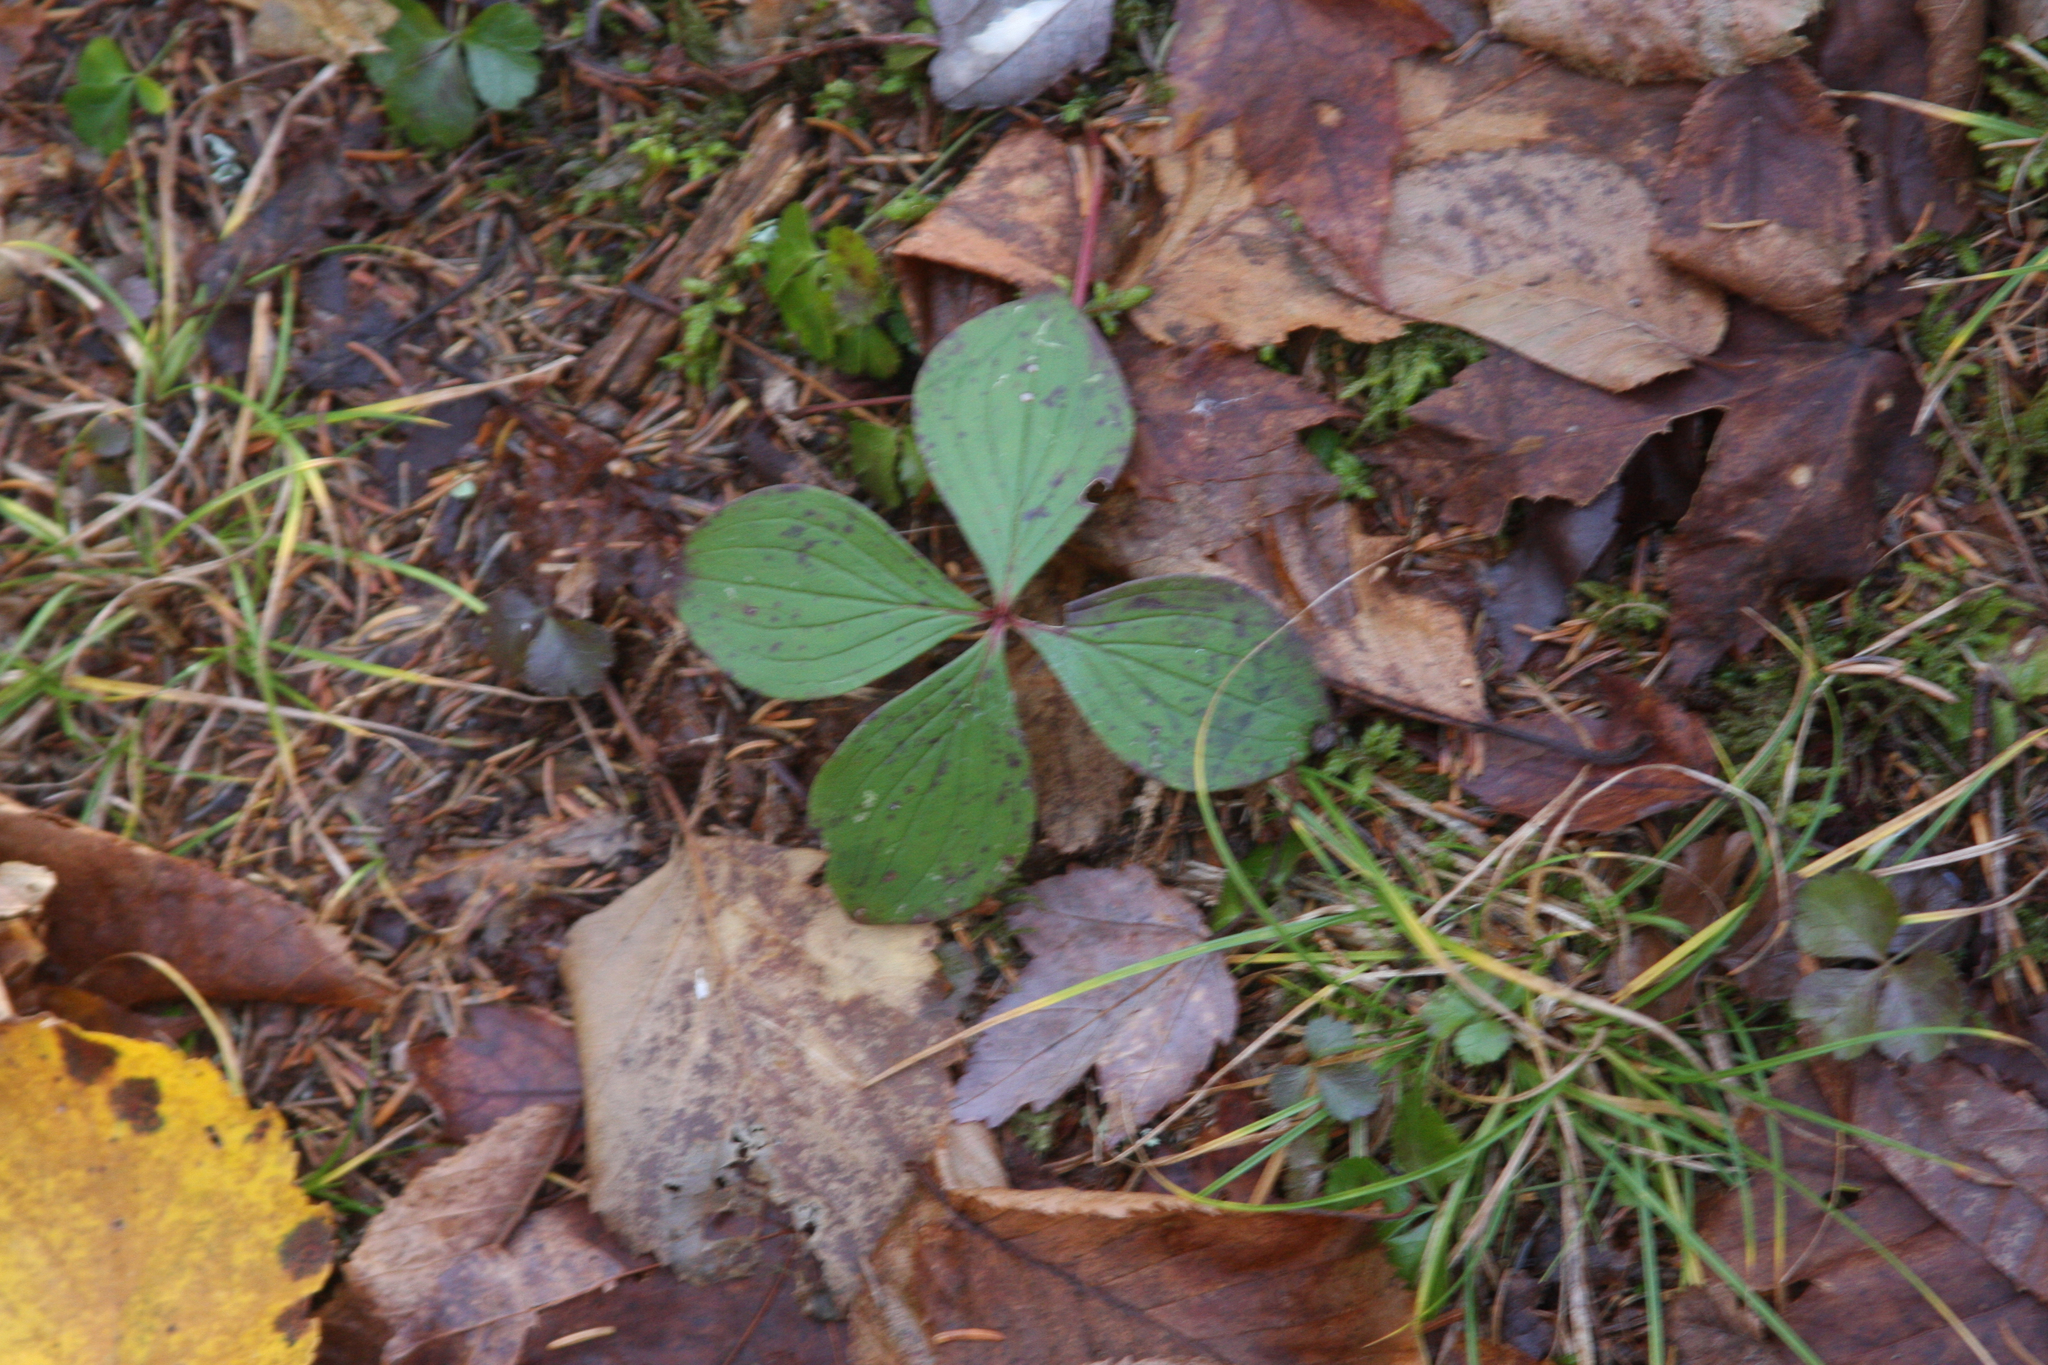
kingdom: Plantae
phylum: Tracheophyta
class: Magnoliopsida
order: Cornales
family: Cornaceae
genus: Cornus
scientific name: Cornus canadensis
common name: Creeping dogwood
